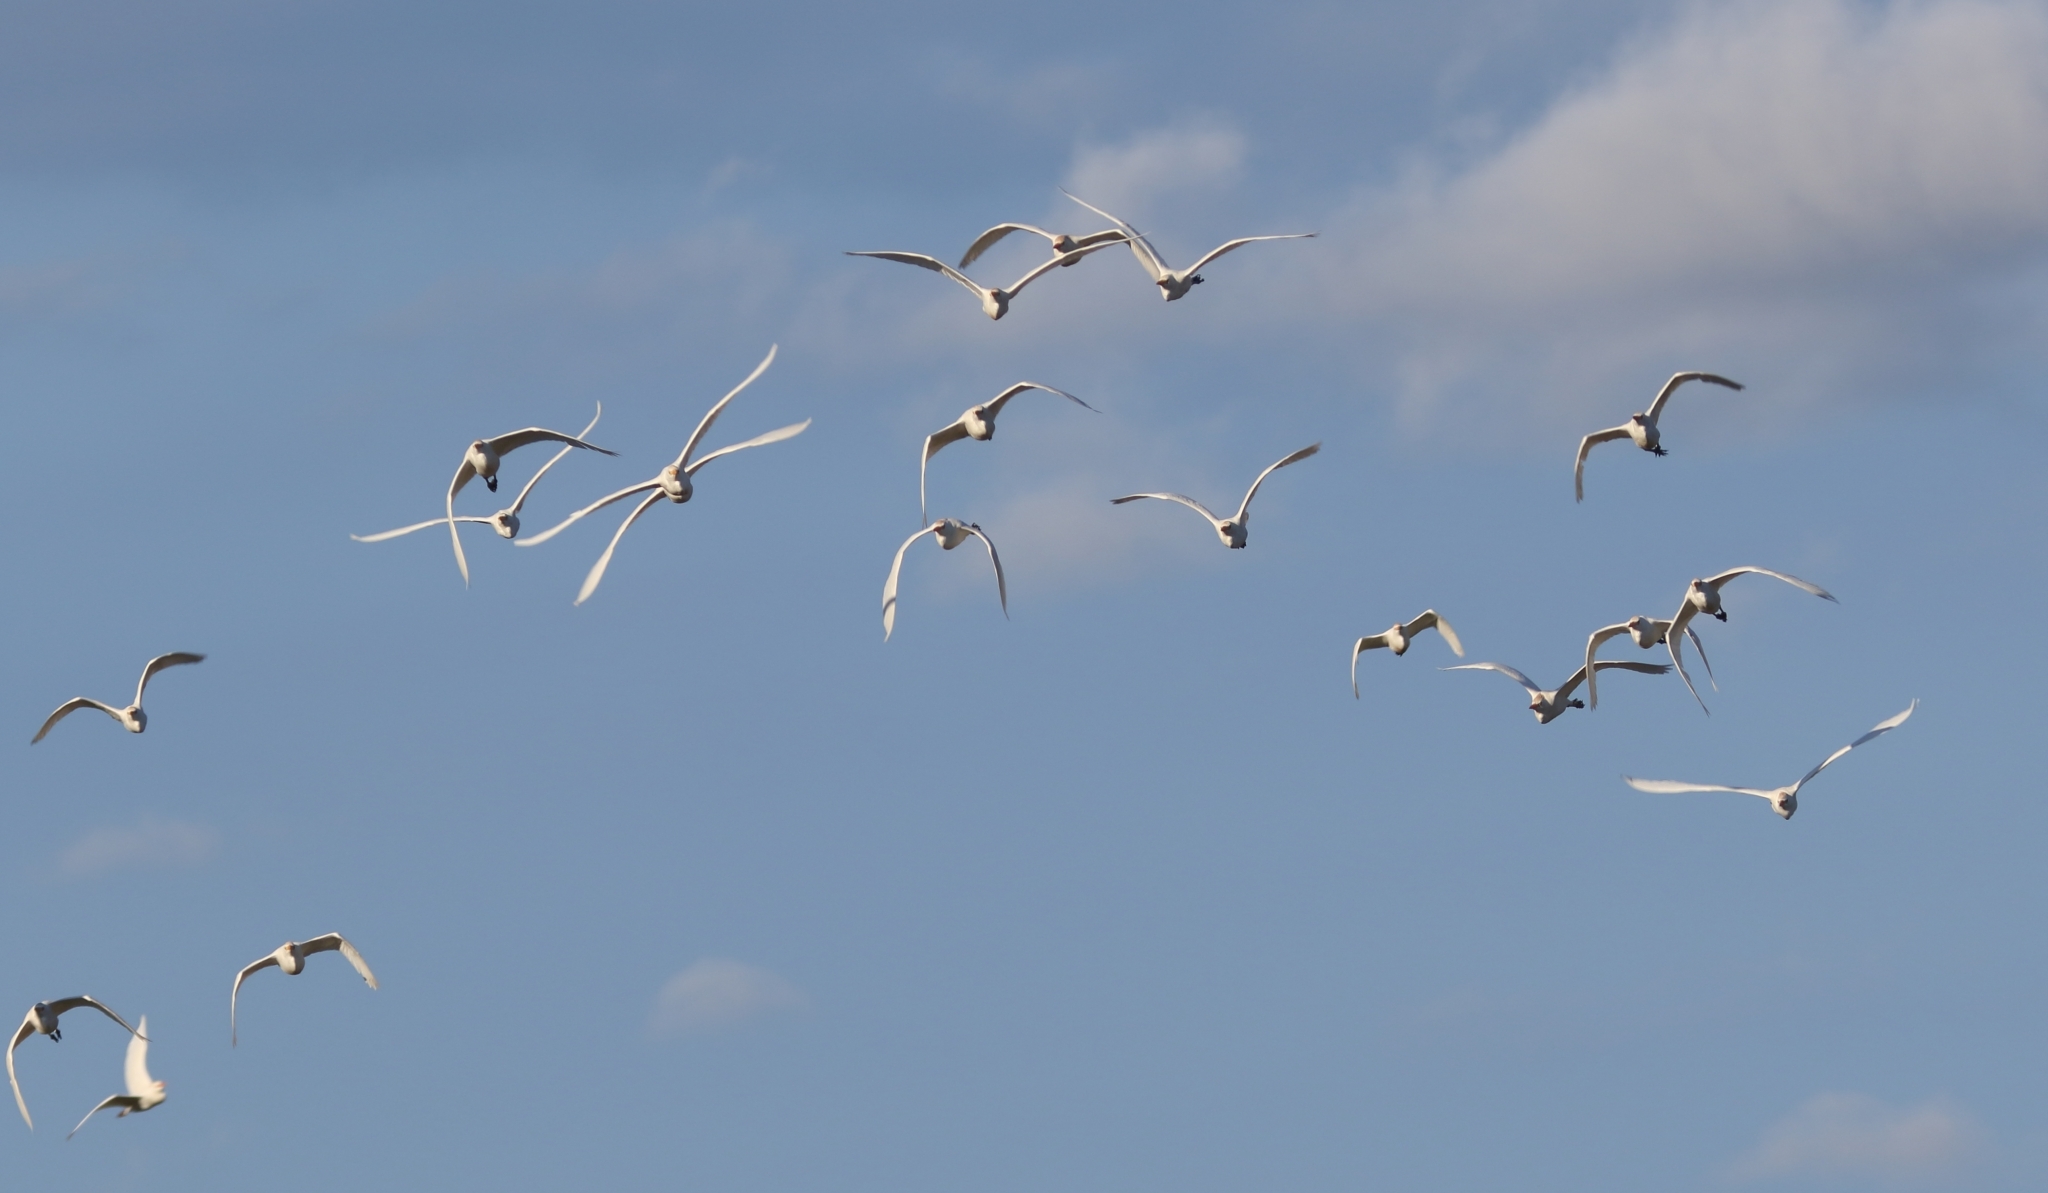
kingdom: Animalia
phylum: Chordata
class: Aves
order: Pelecaniformes
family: Ardeidae
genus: Bubulcus
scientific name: Bubulcus ibis
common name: Cattle egret
